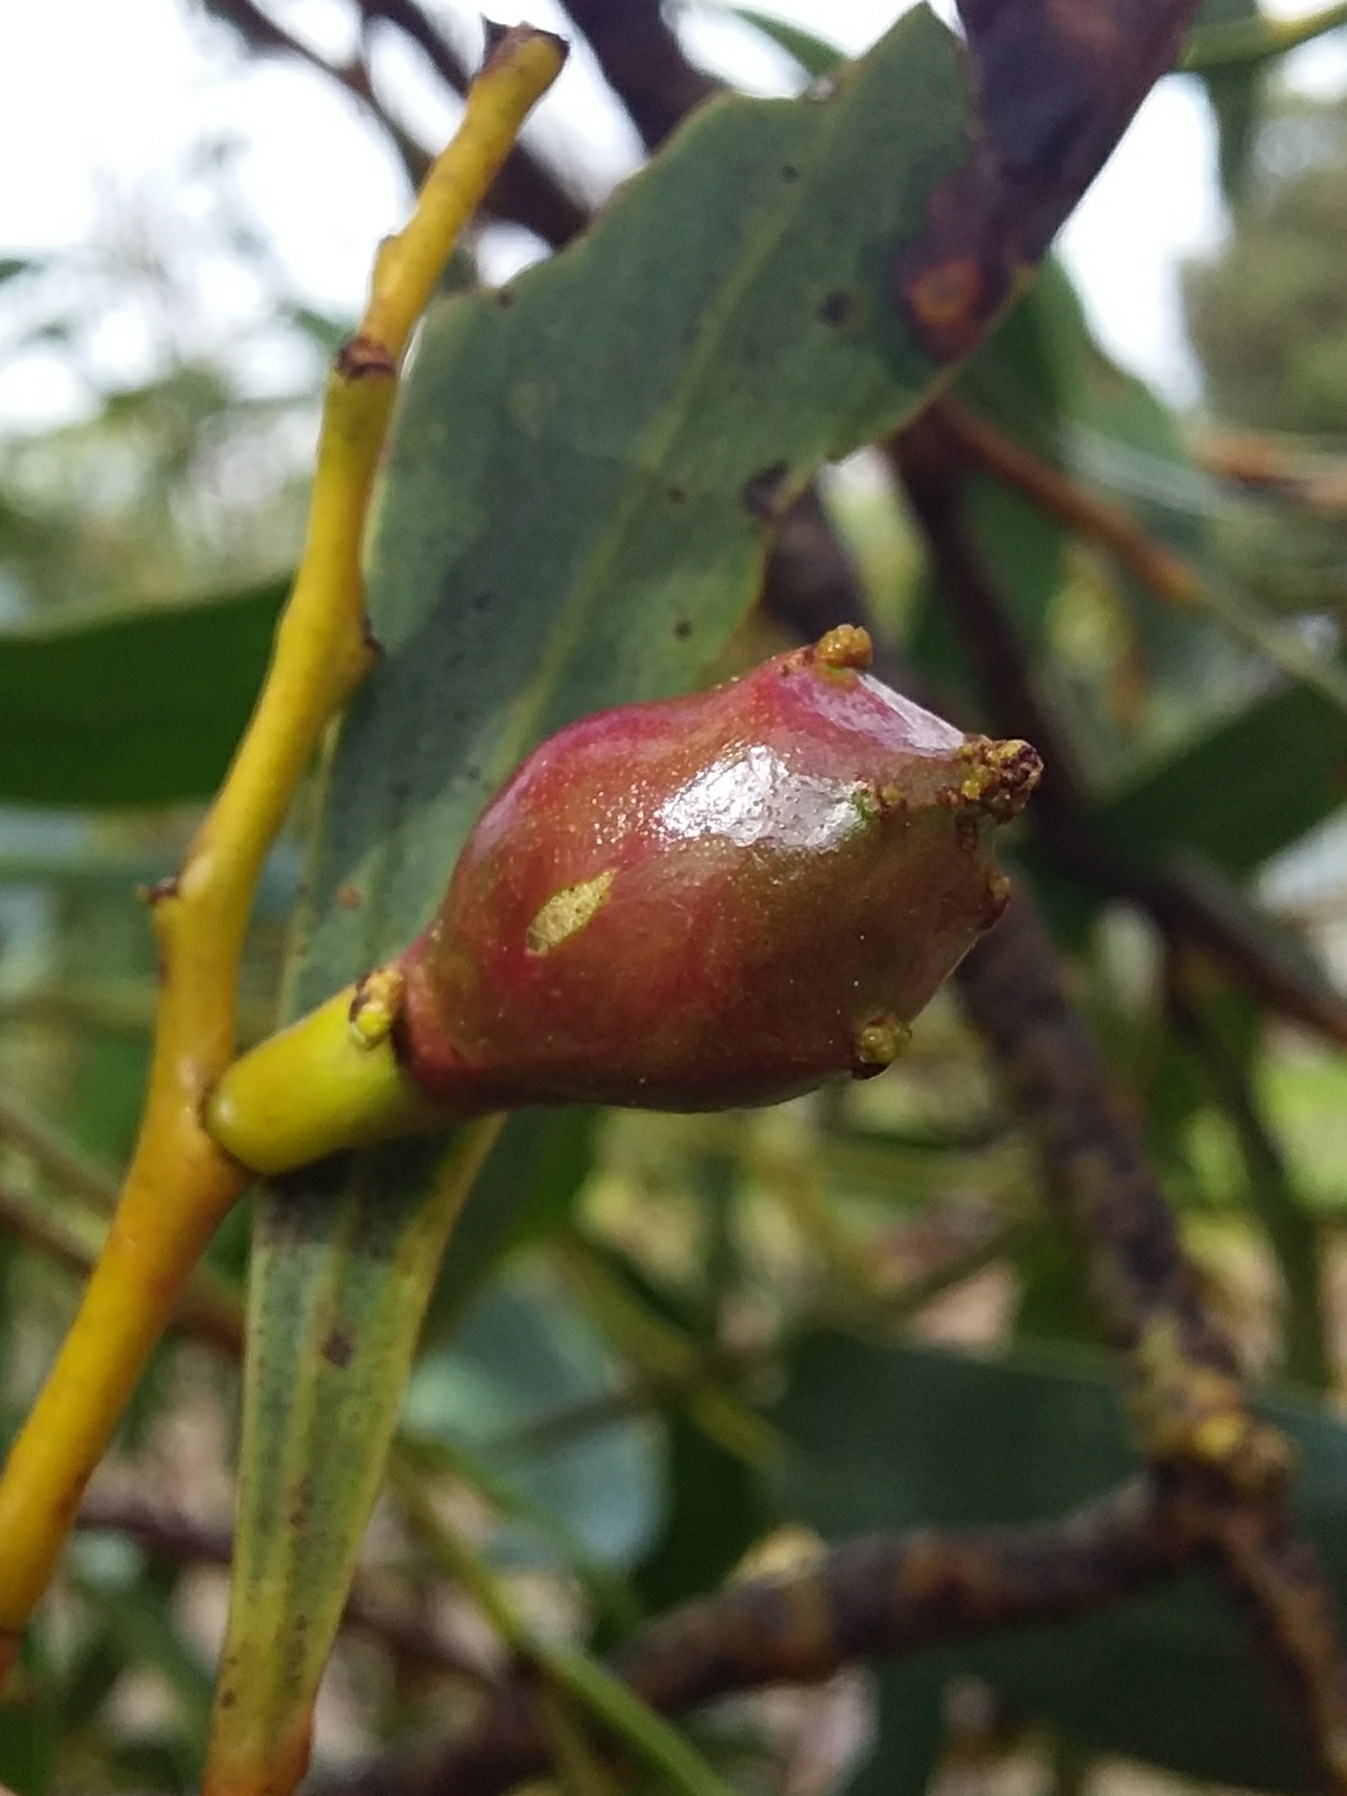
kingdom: Animalia
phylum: Arthropoda
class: Insecta
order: Hymenoptera
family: Pteromalidae
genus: Trichilogaster
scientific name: Trichilogaster signiventris
